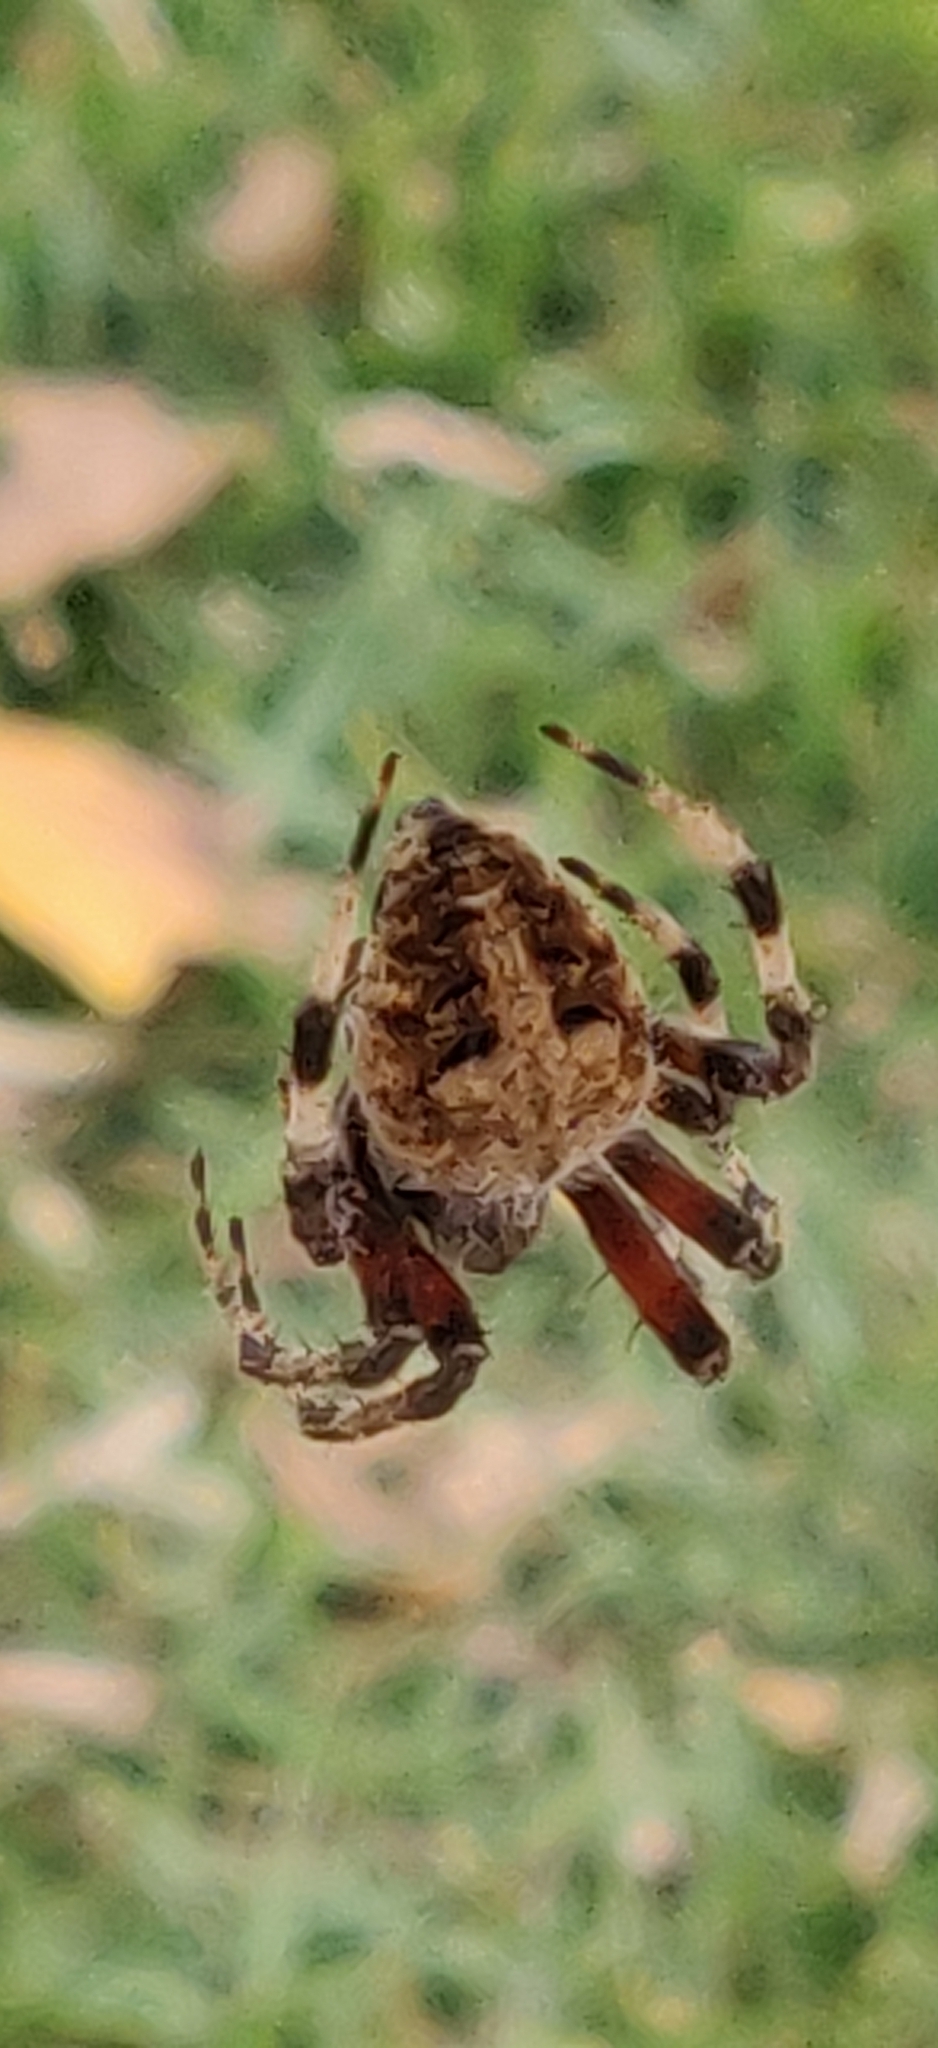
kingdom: Animalia
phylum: Arthropoda
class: Arachnida
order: Araneae
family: Araneidae
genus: Neoscona
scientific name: Neoscona crucifera
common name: Spotted orbweaver
